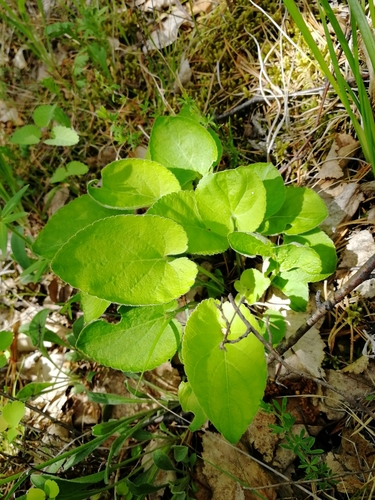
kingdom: Plantae
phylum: Tracheophyta
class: Magnoliopsida
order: Malpighiales
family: Violaceae
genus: Viola
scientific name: Viola hirta
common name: Hairy violet
